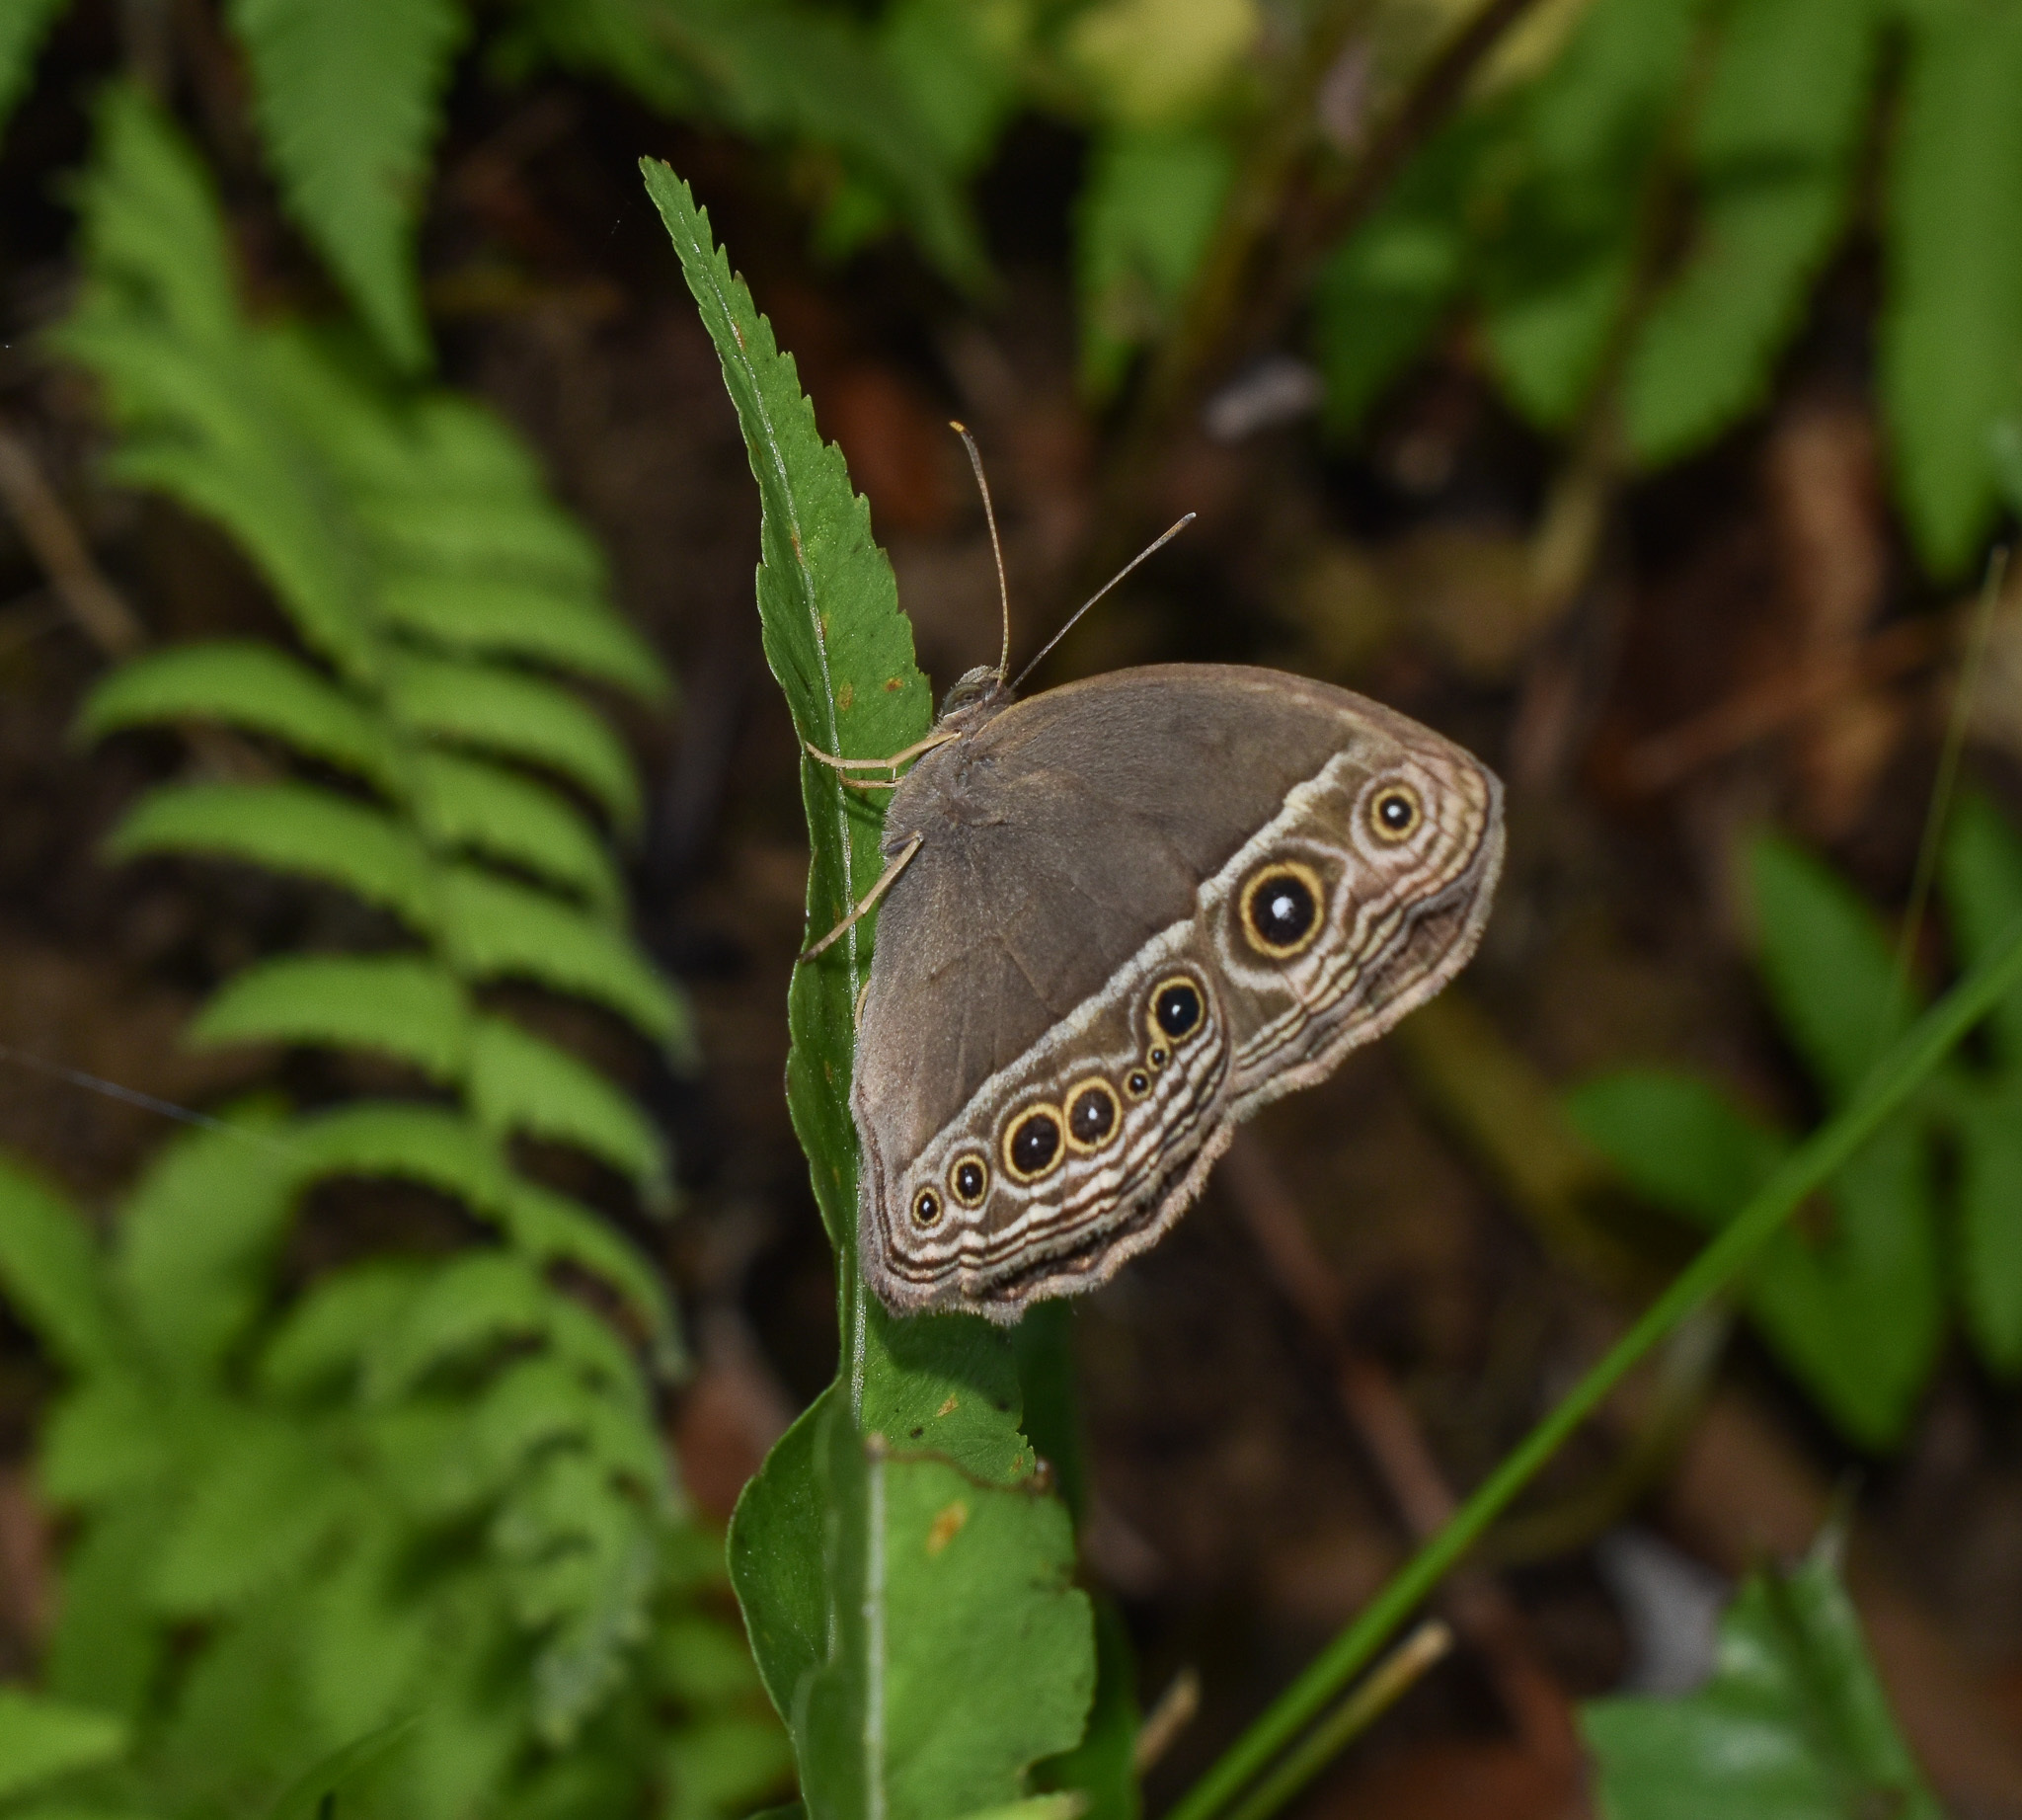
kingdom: Animalia
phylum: Arthropoda
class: Insecta
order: Lepidoptera
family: Nymphalidae
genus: Mycalesis
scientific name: Mycalesis mineus
